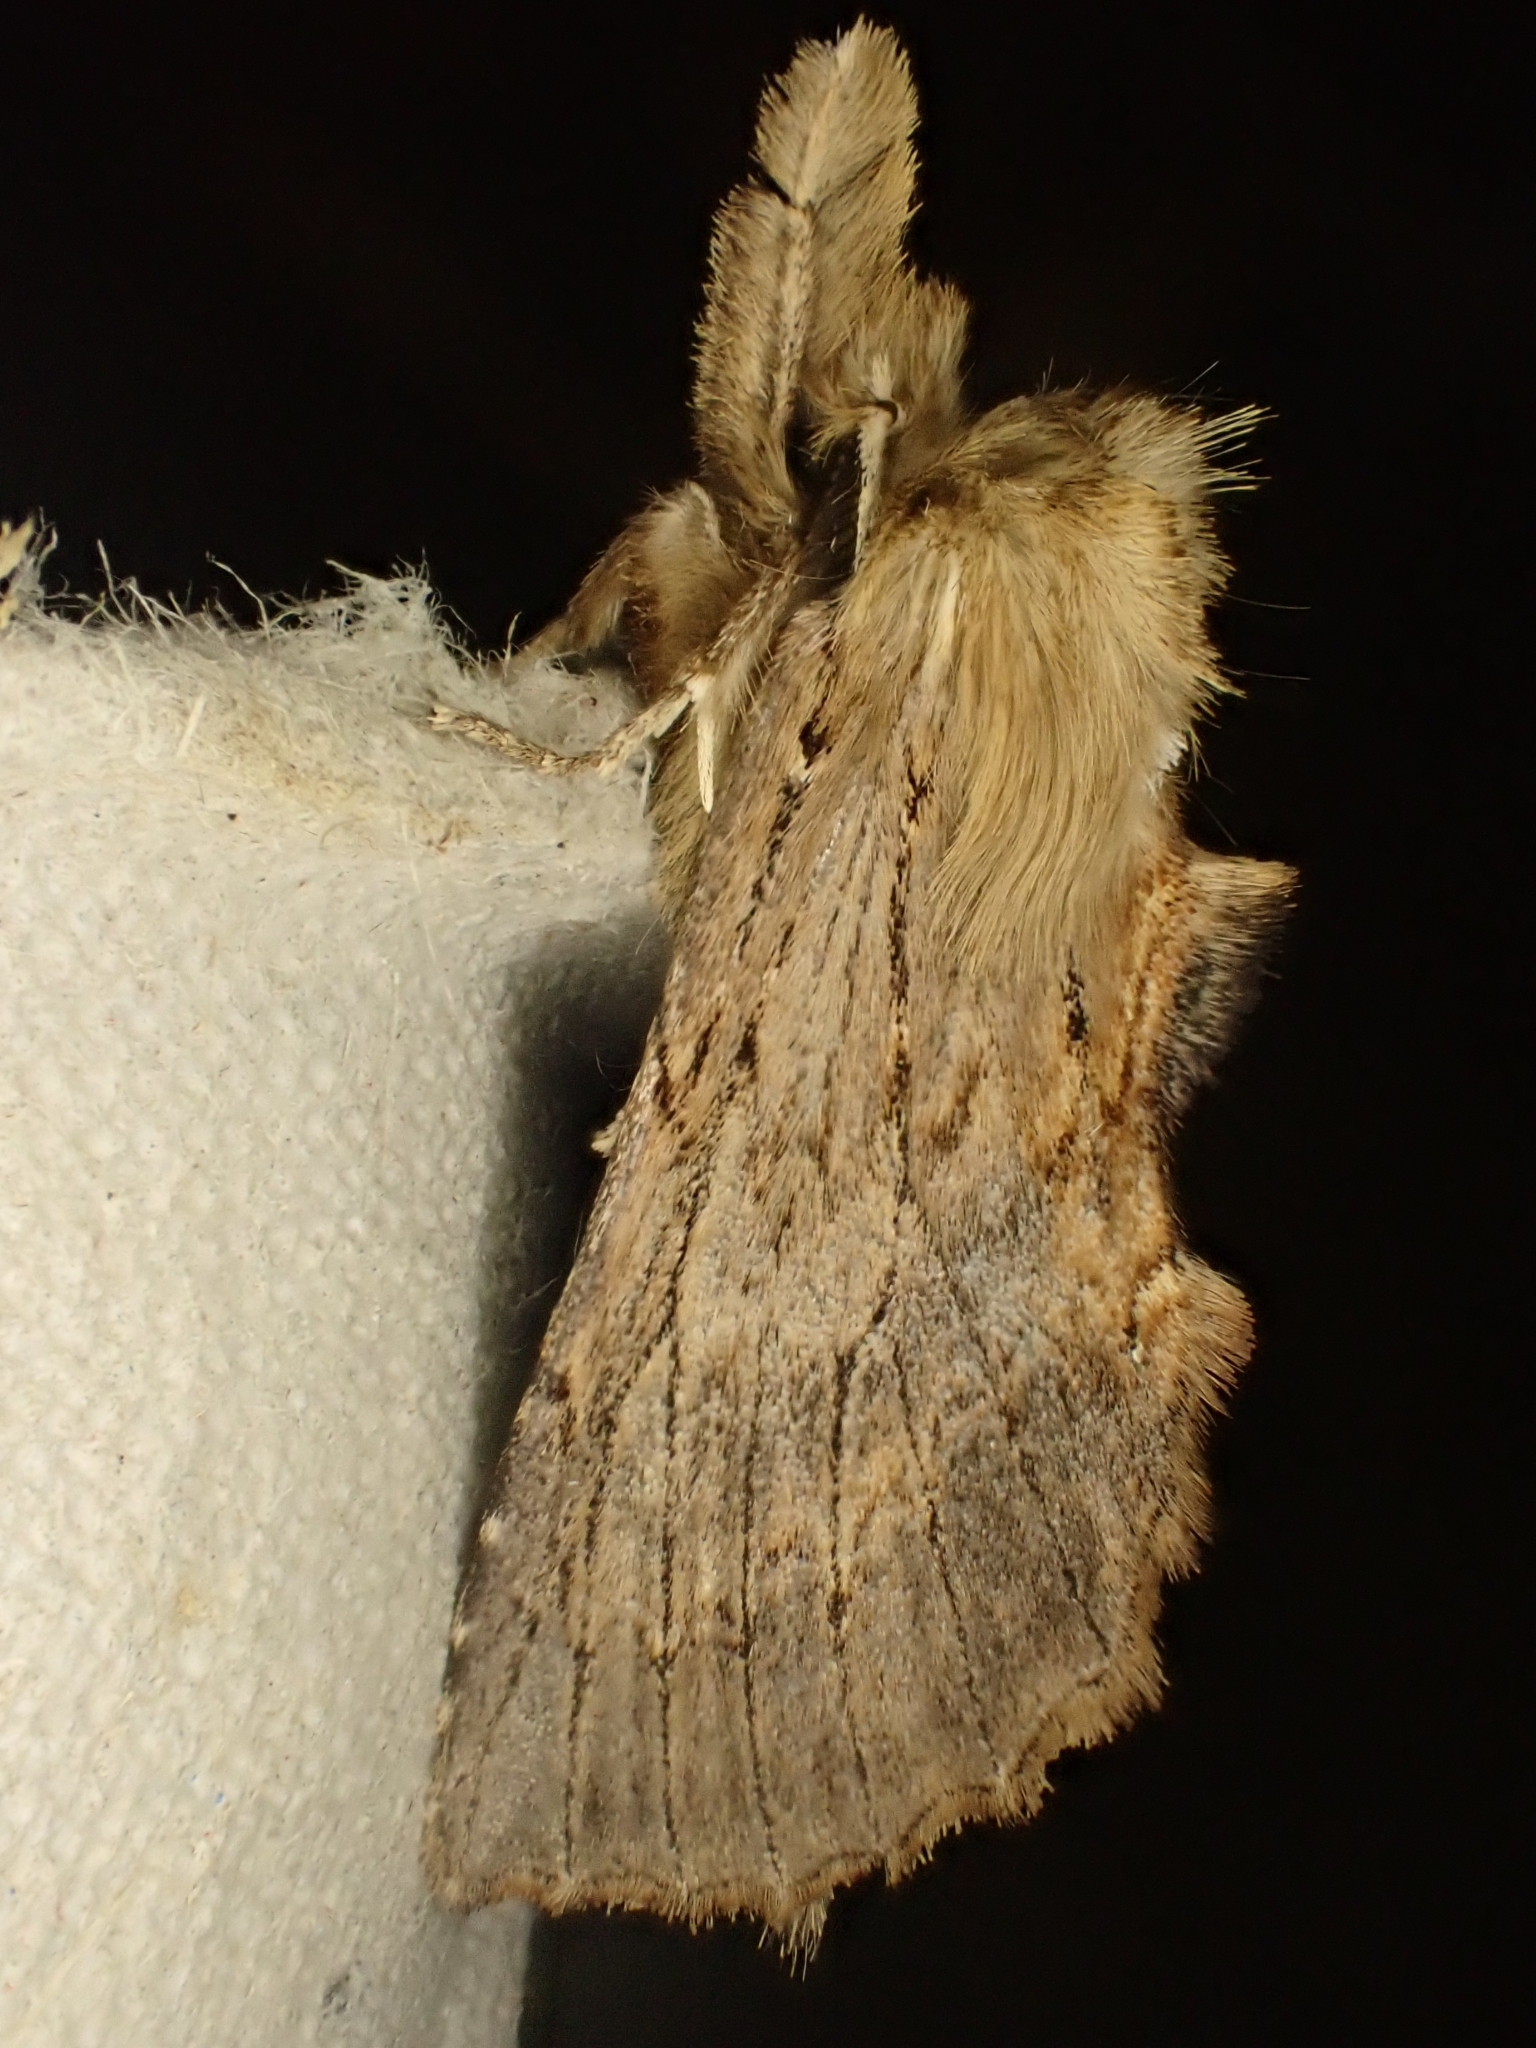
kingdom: Animalia
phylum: Arthropoda
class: Insecta
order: Lepidoptera
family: Notodontidae
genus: Pterostoma
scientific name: Pterostoma palpina
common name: Pale prominent
